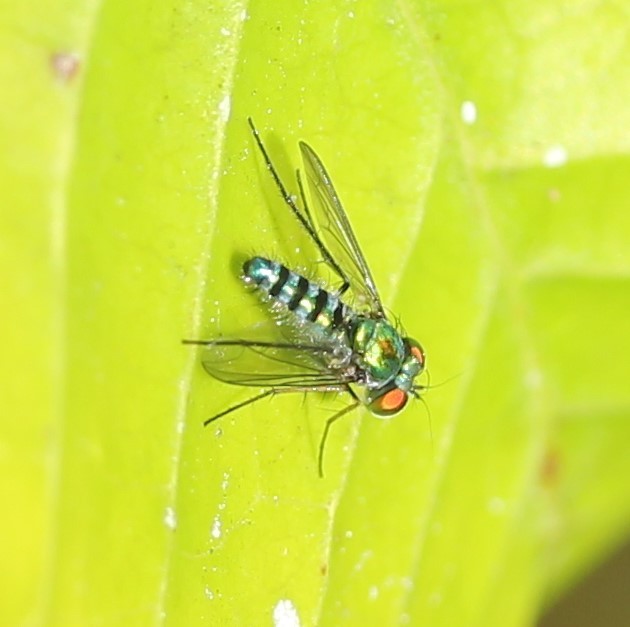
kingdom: Animalia
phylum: Arthropoda
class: Insecta
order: Diptera
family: Dolichopodidae
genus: Condylostylus
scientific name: Condylostylus pruinosus
